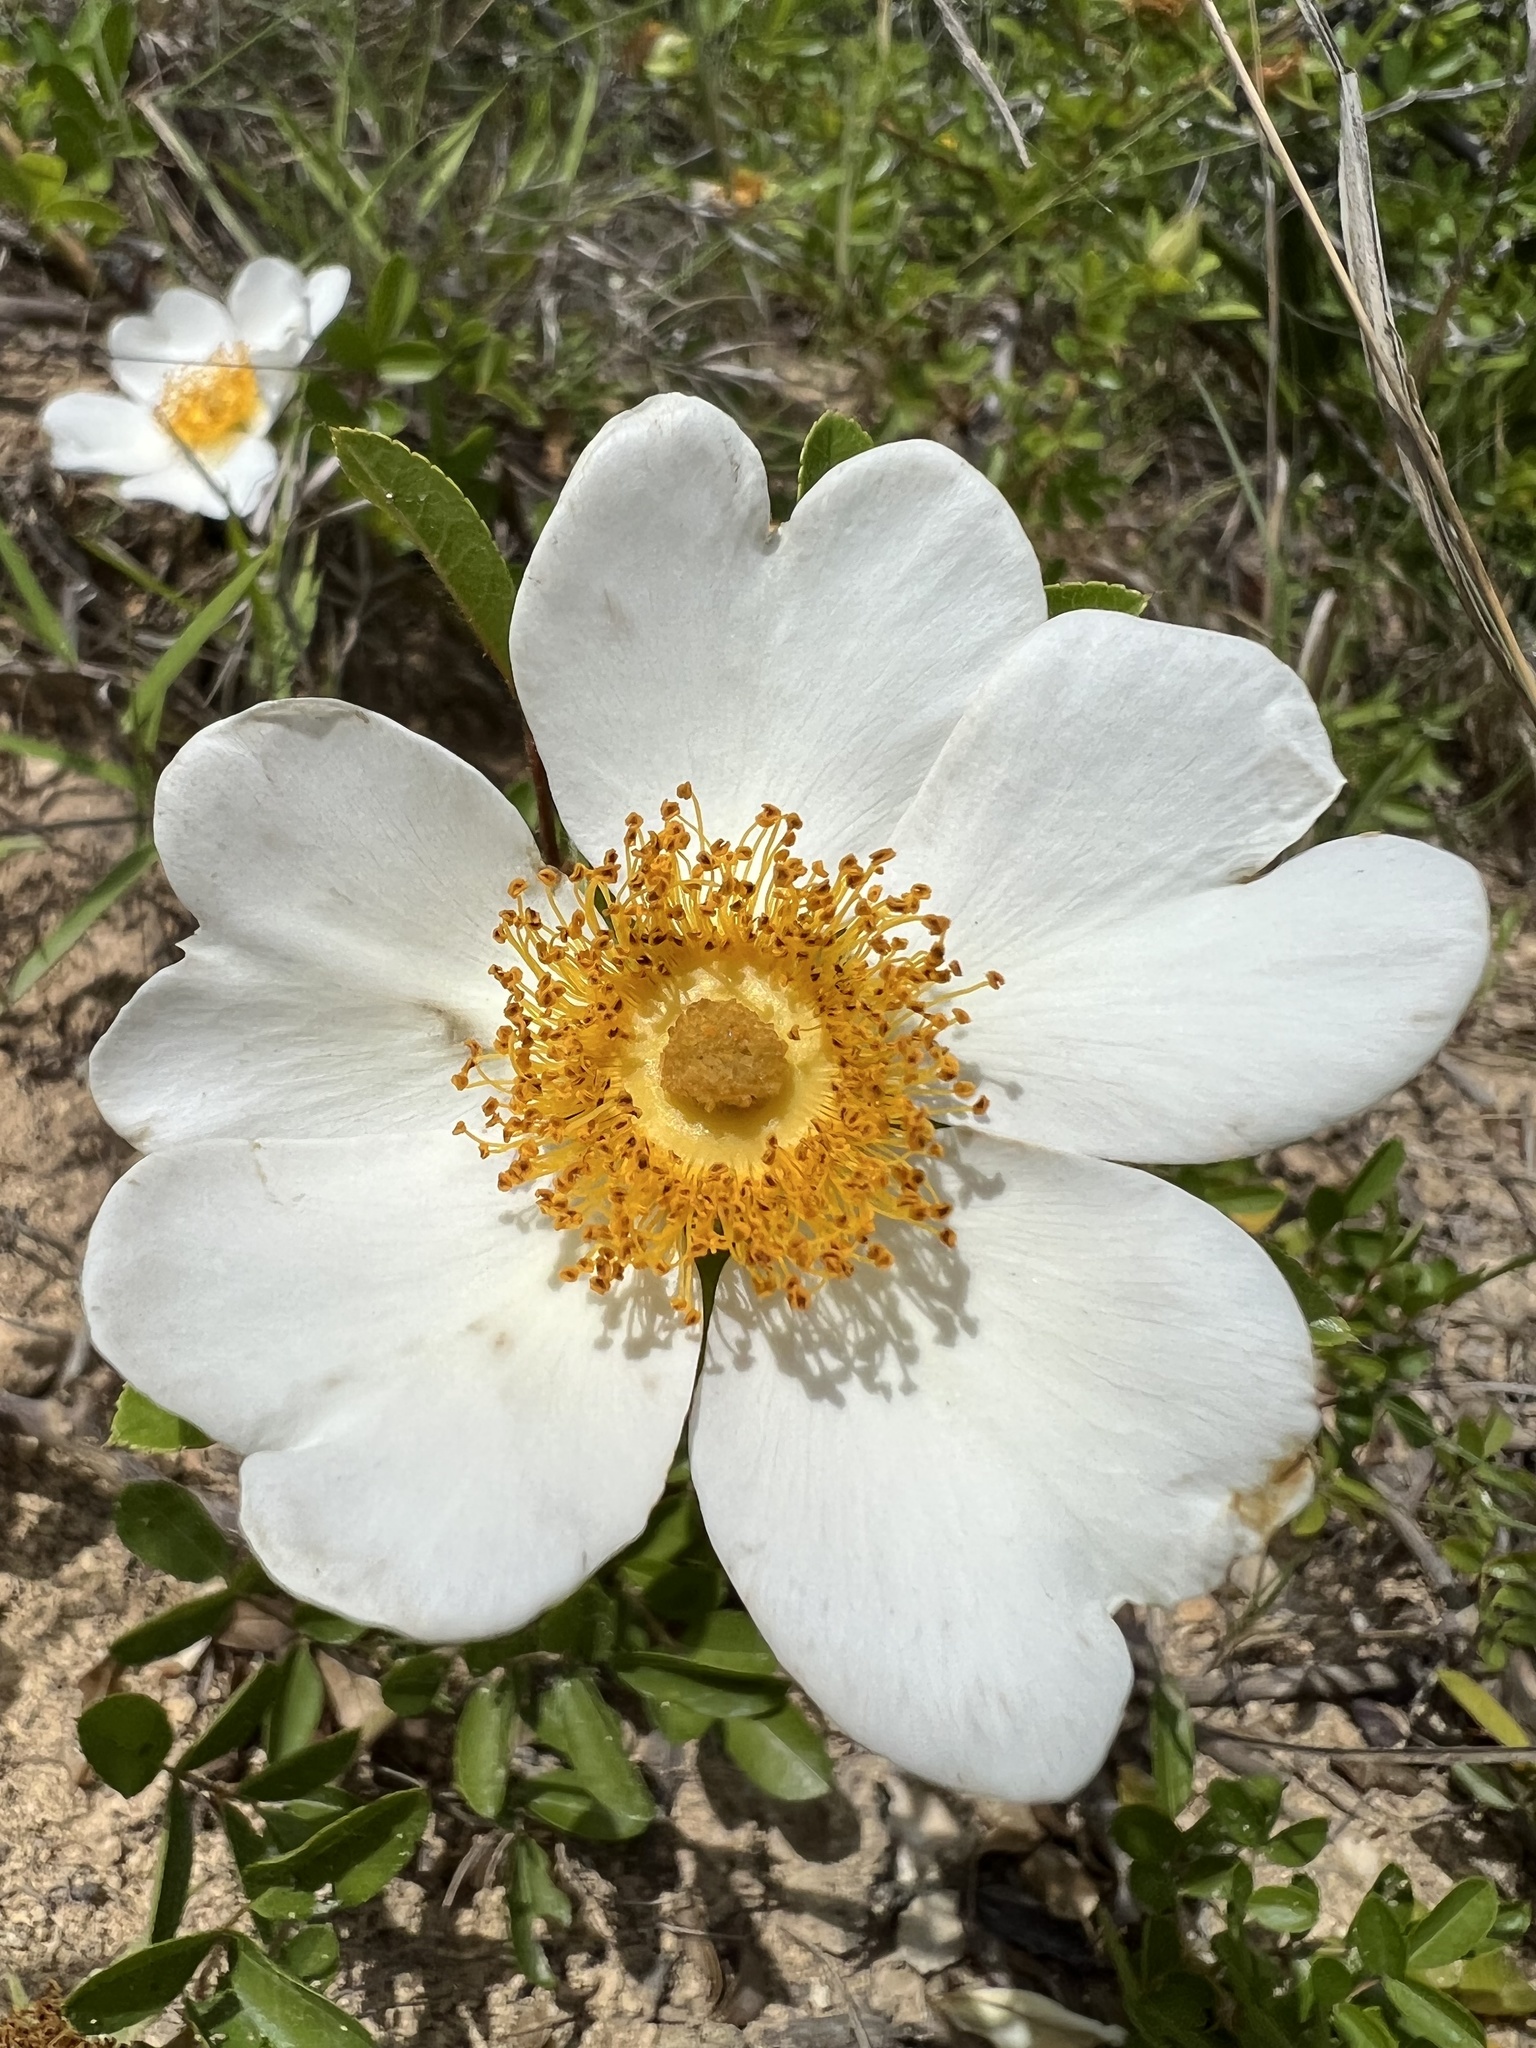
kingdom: Plantae
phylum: Tracheophyta
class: Magnoliopsida
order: Rosales
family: Rosaceae
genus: Rosa
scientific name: Rosa bracteata
